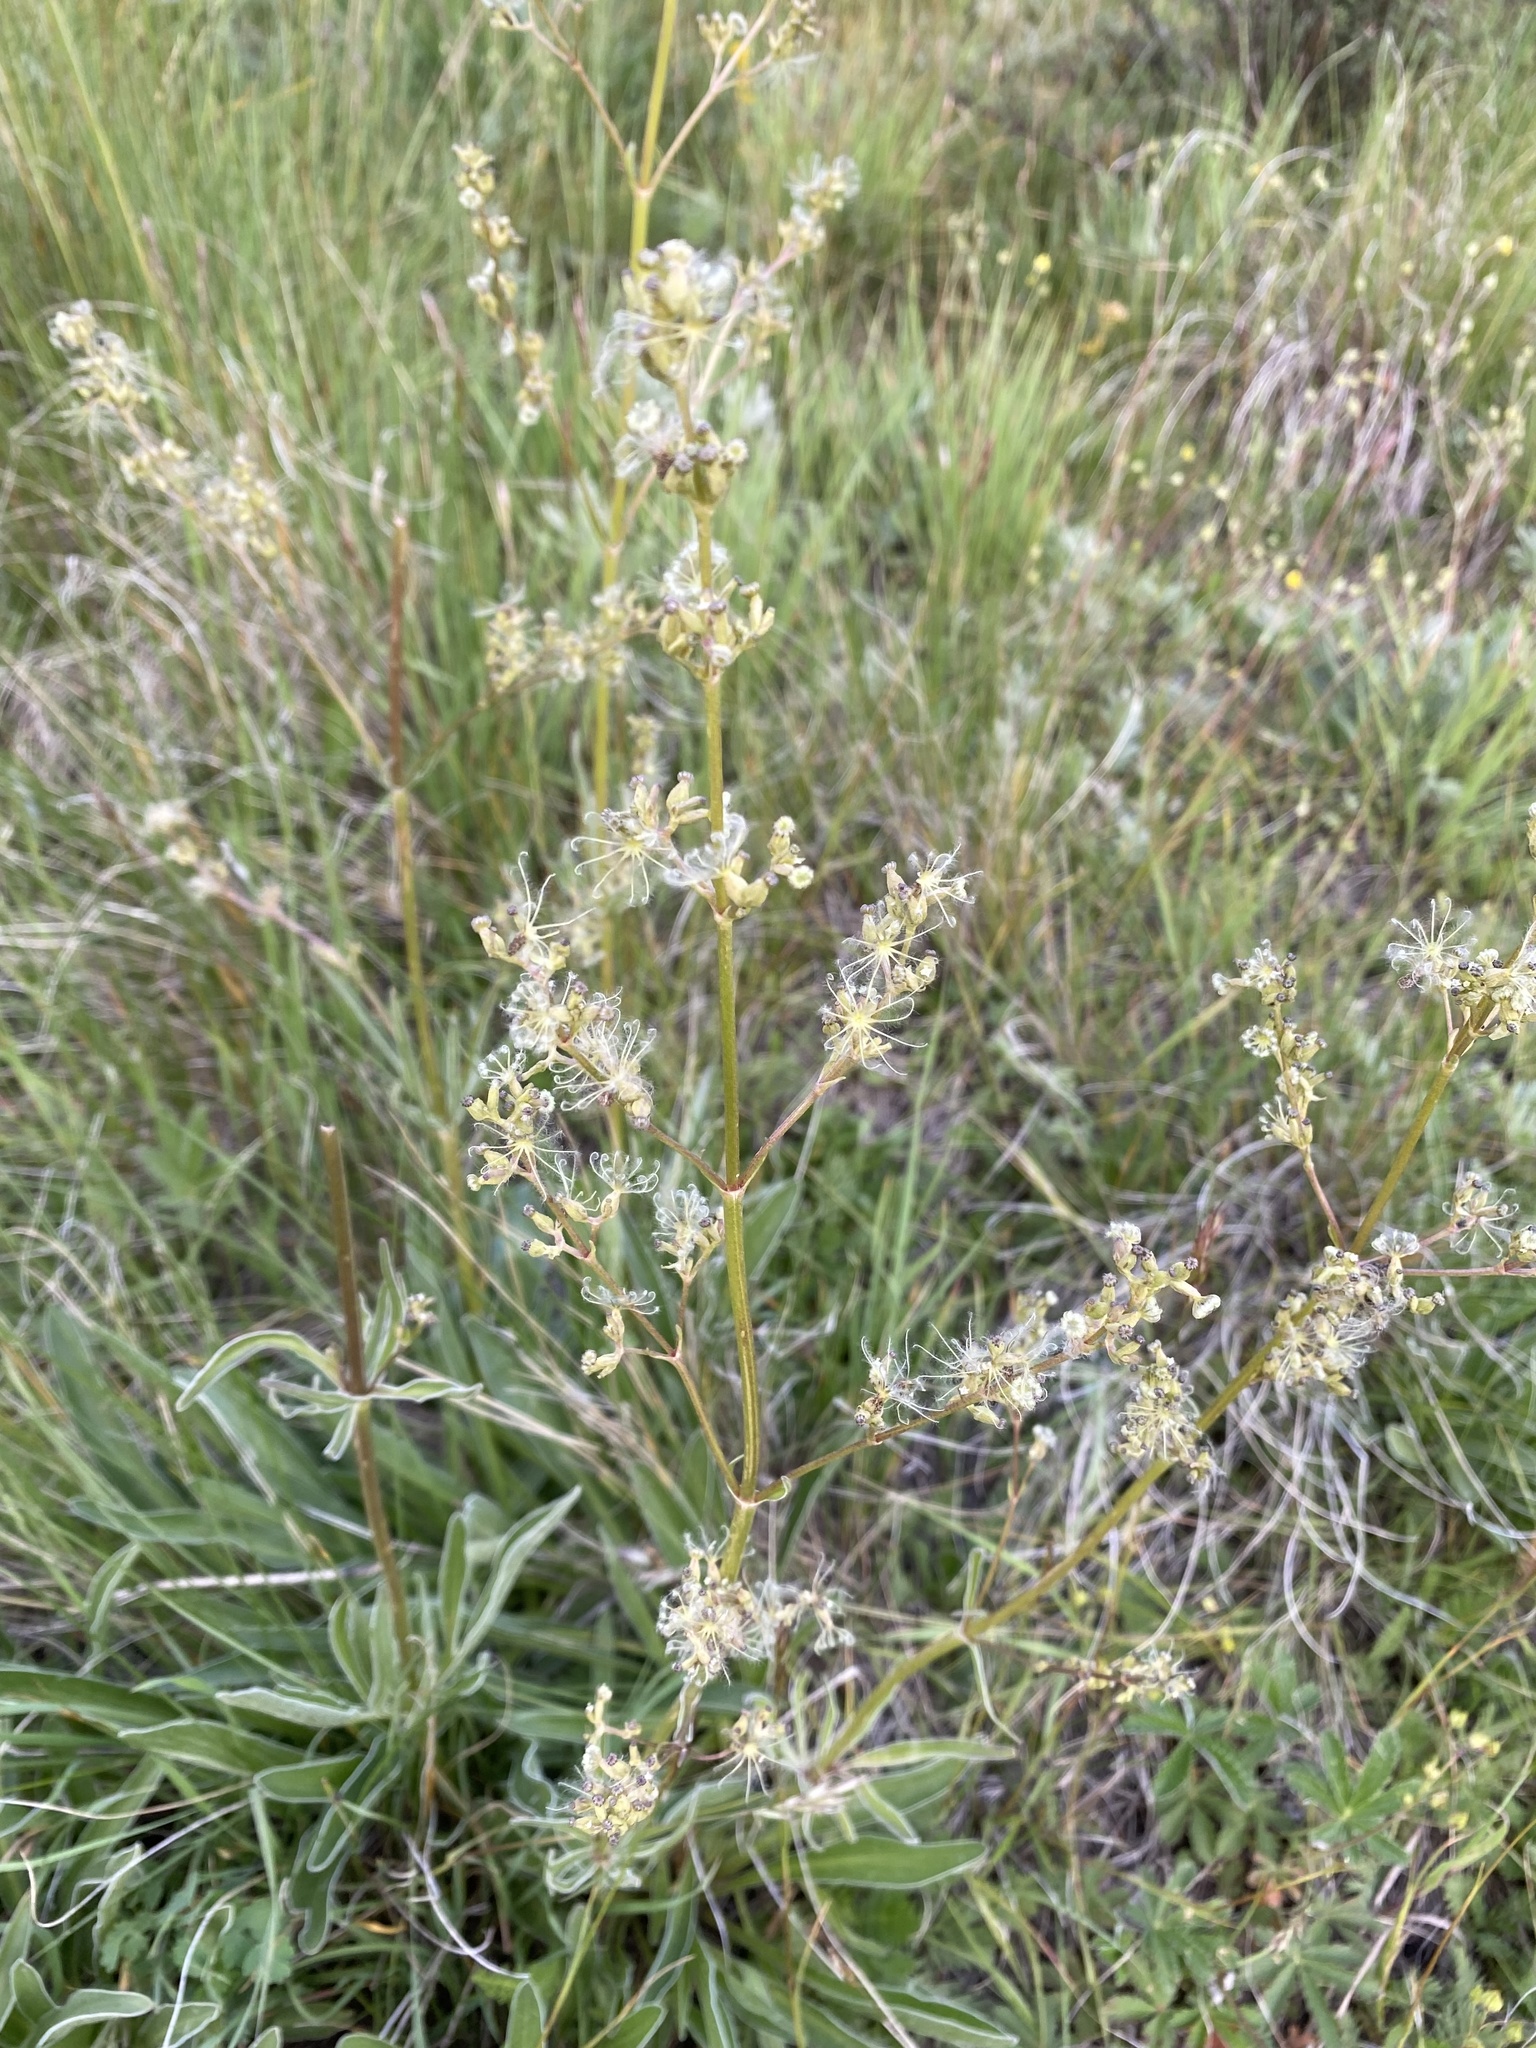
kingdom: Plantae
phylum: Tracheophyta
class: Magnoliopsida
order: Dipsacales
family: Caprifoliaceae
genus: Valeriana
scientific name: Valeriana edulis
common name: Taproot valerian
